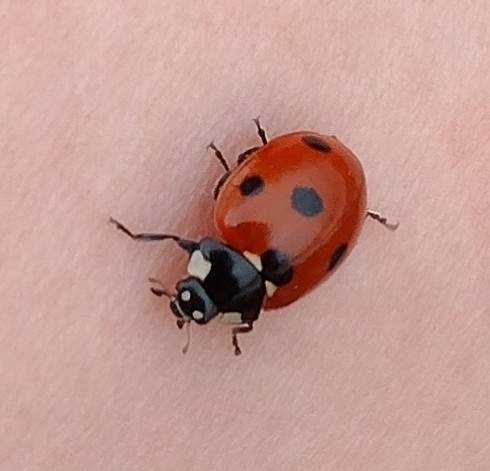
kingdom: Animalia
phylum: Arthropoda
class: Insecta
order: Coleoptera
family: Coccinellidae
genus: Coccinella
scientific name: Coccinella septempunctata
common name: Sevenspotted lady beetle
